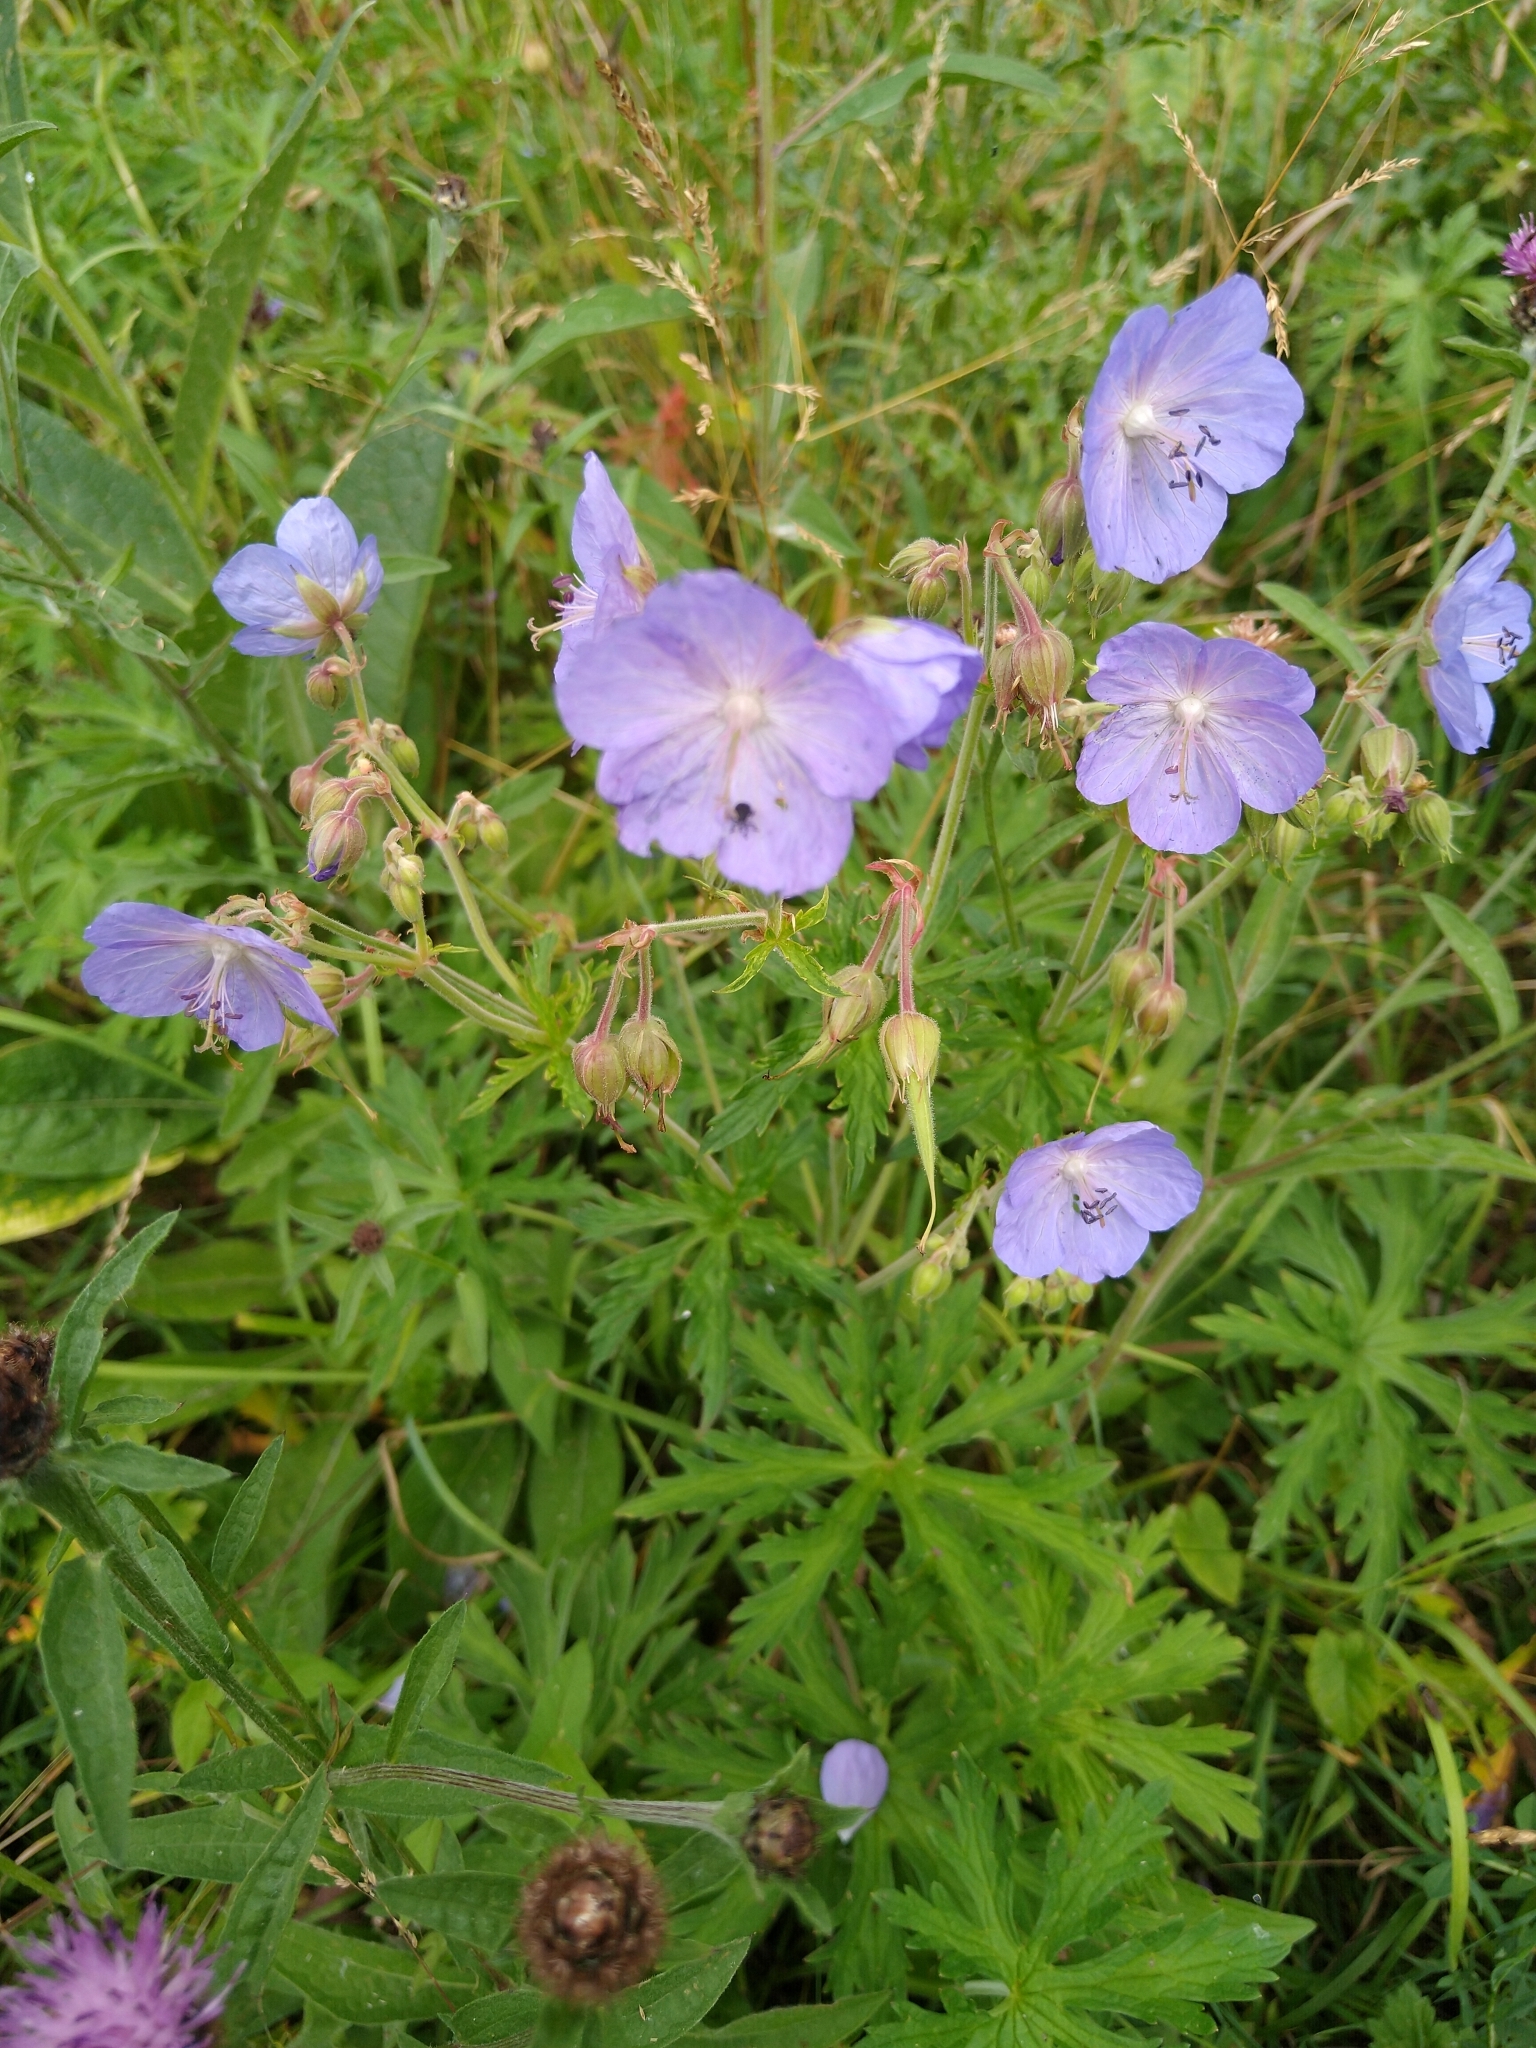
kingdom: Plantae
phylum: Tracheophyta
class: Magnoliopsida
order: Geraniales
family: Geraniaceae
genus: Geranium
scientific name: Geranium pratense
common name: Meadow crane's-bill
